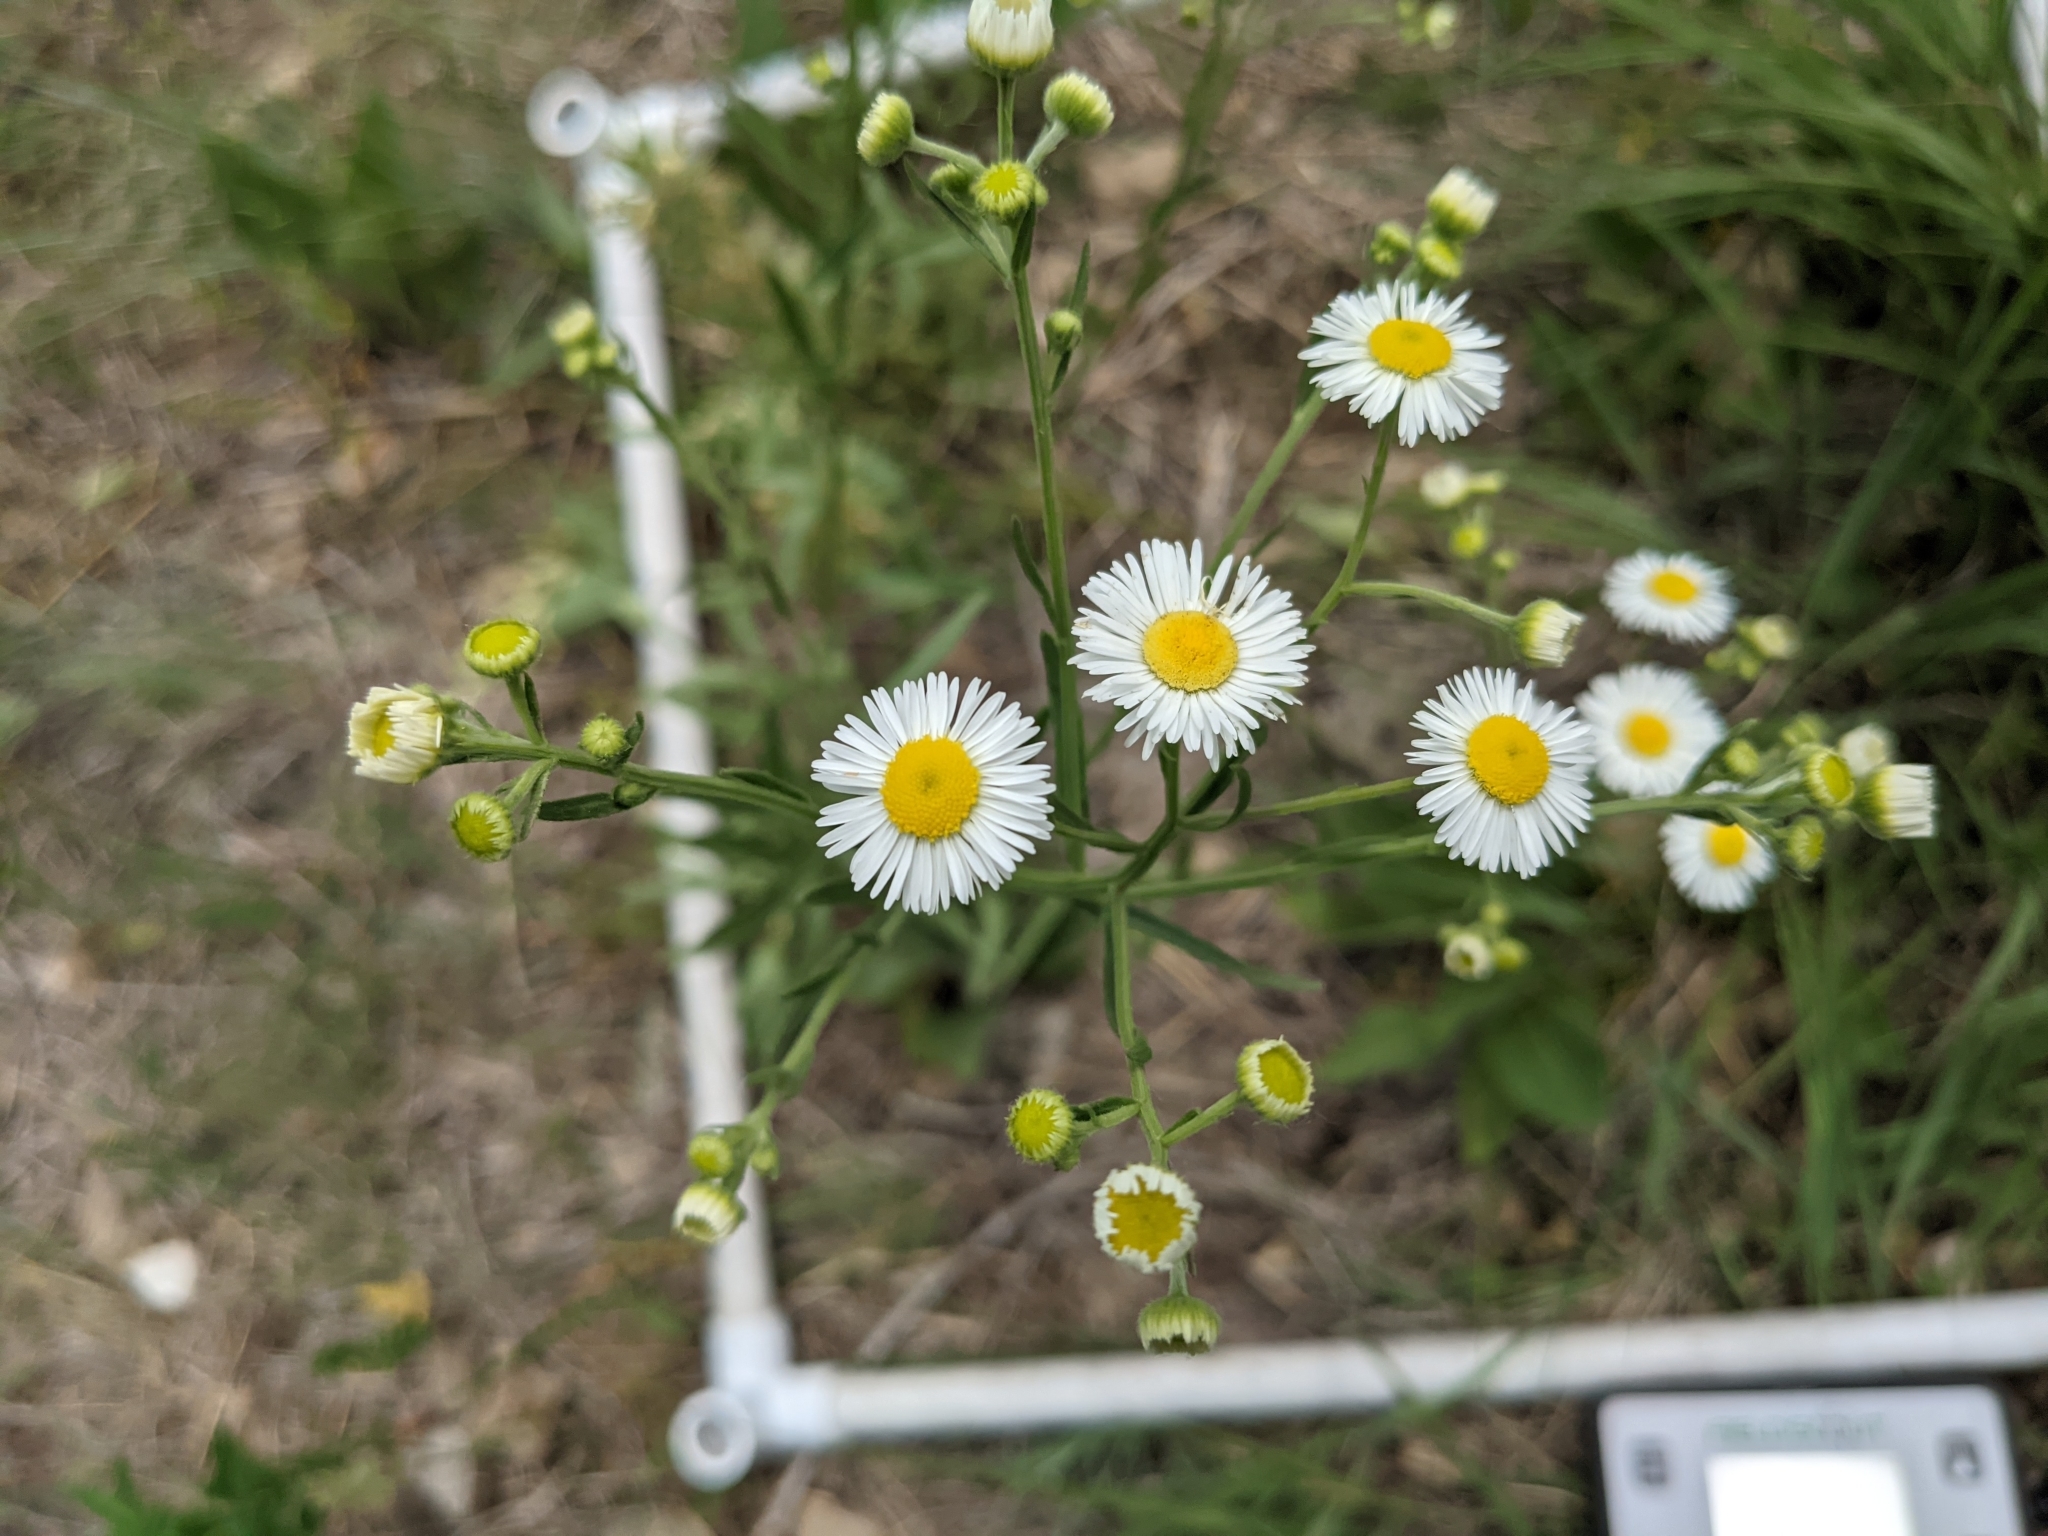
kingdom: Plantae
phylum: Tracheophyta
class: Magnoliopsida
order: Asterales
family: Asteraceae
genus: Erigeron
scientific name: Erigeron strigosus
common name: Common eastern fleabane
